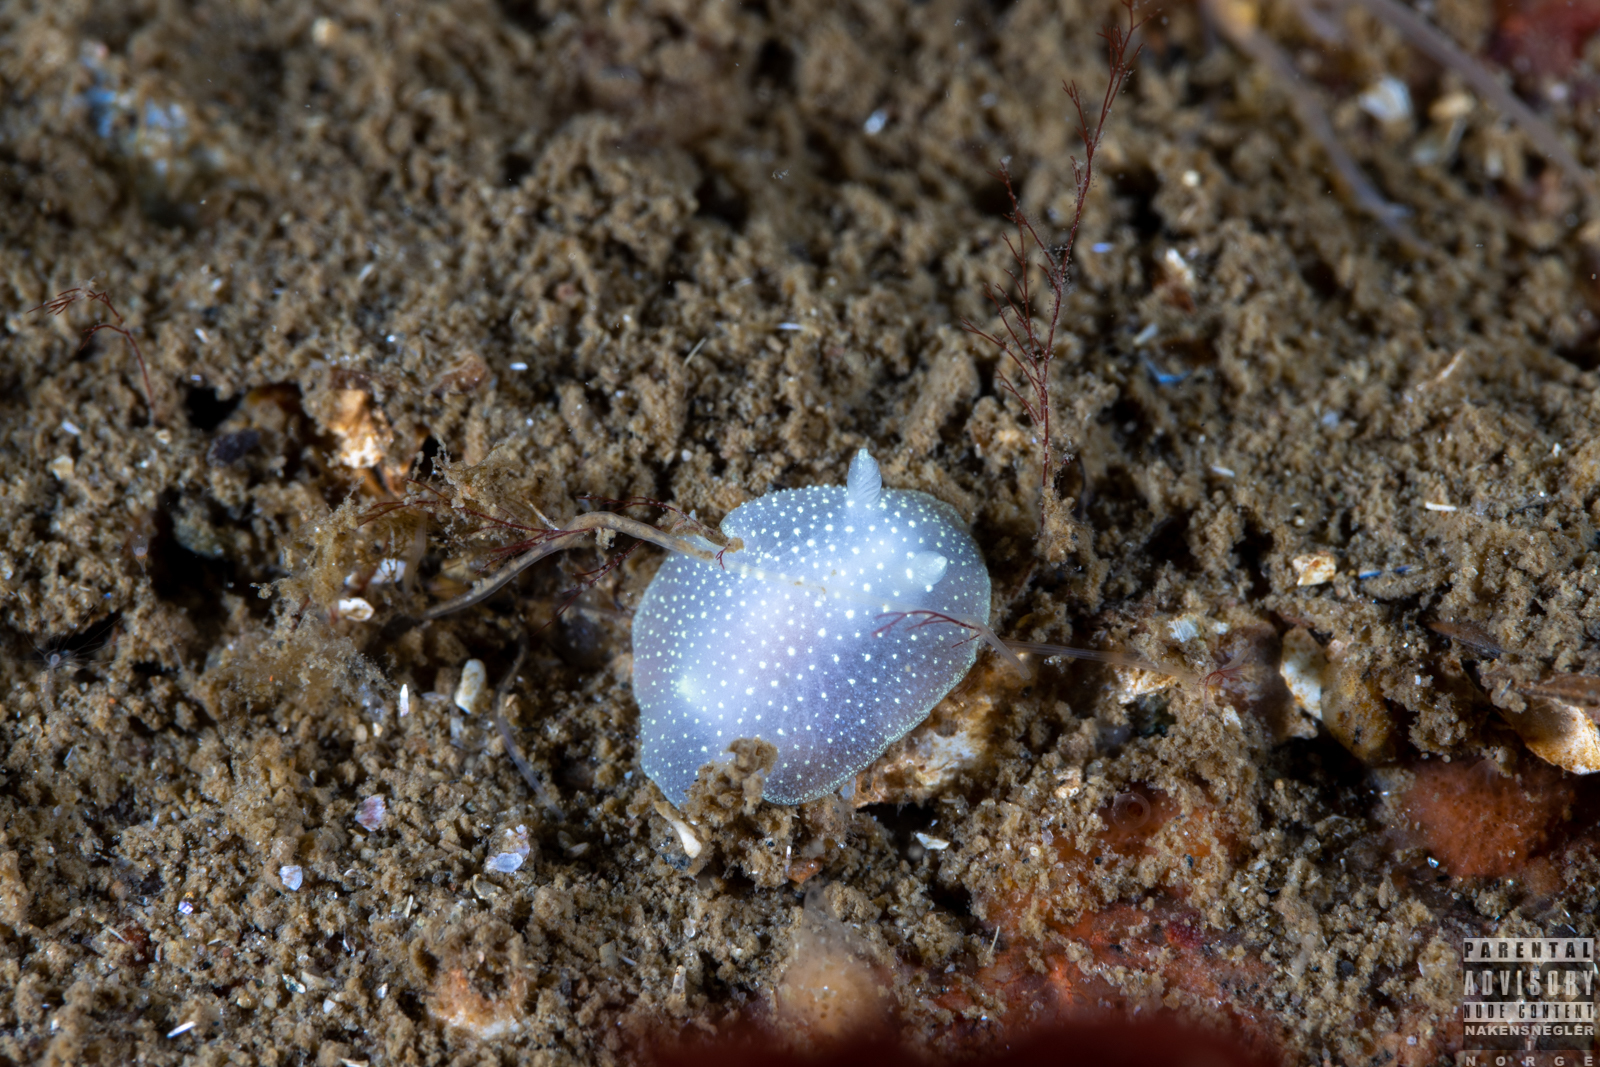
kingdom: Animalia
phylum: Mollusca
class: Gastropoda
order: Nudibranchia
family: Cadlinidae
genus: Cadlina
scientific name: Cadlina laevis
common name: White atlantic cadlina
